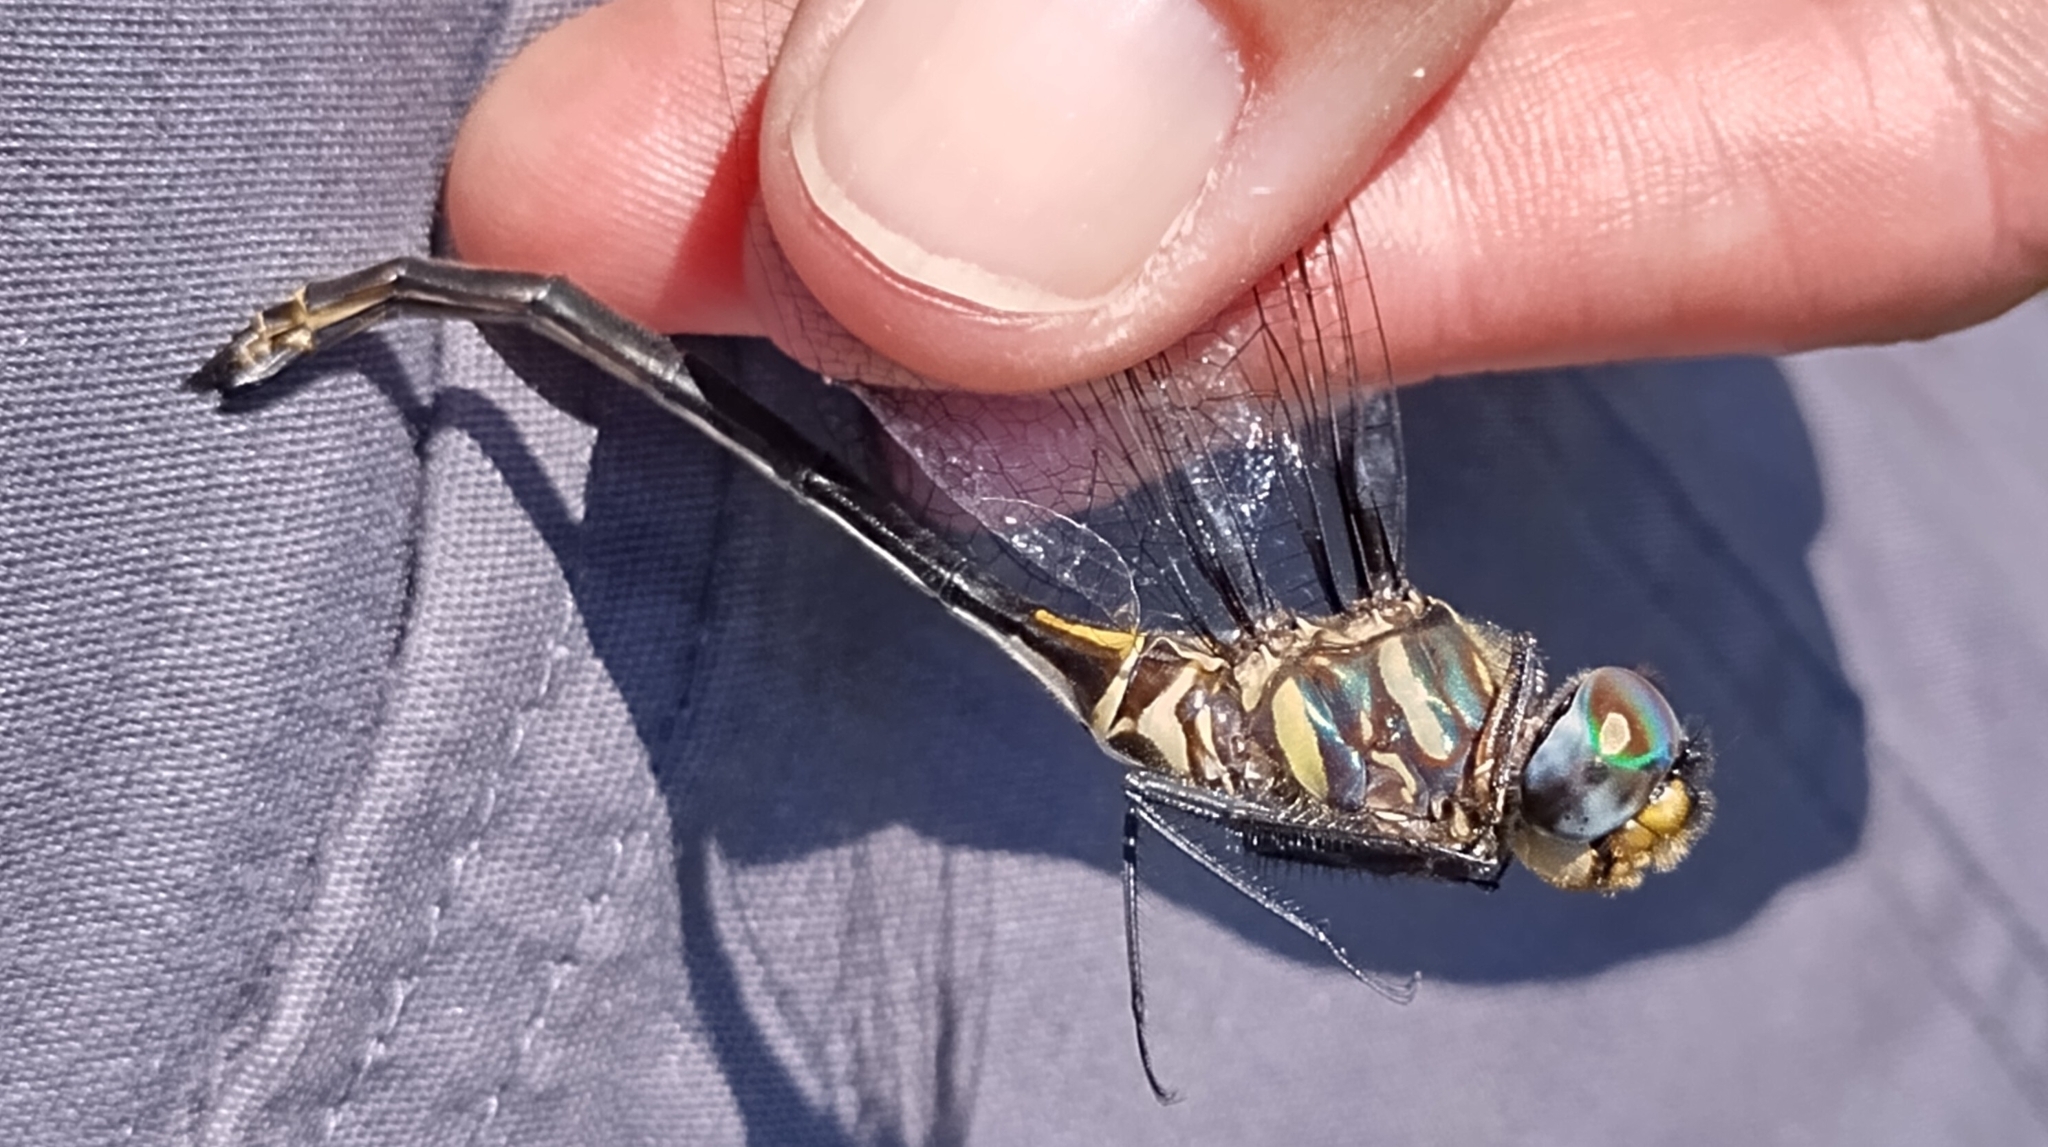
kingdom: Animalia
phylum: Arthropoda
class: Insecta
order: Odonata
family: Corduliidae
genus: Somatochlora
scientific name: Somatochlora provocans
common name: Treetop emerald
